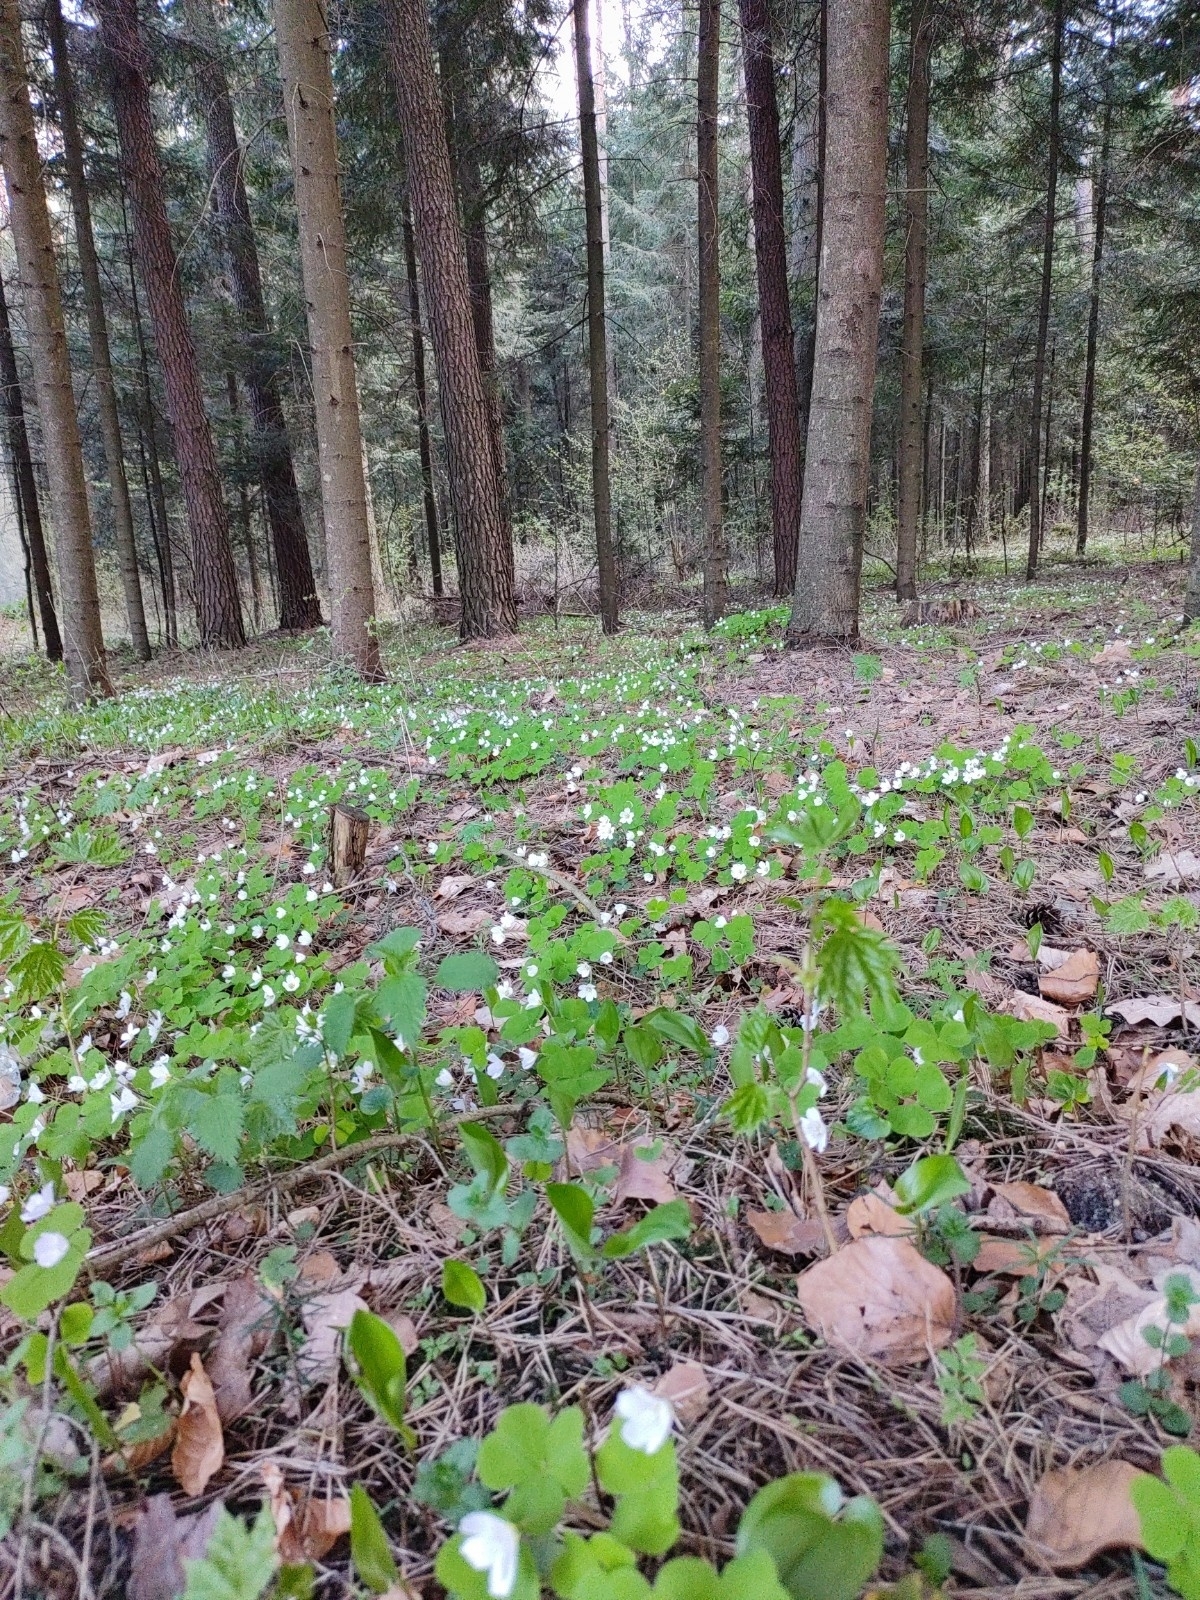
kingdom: Plantae
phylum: Tracheophyta
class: Magnoliopsida
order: Oxalidales
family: Oxalidaceae
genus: Oxalis
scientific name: Oxalis acetosella
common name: Wood-sorrel
